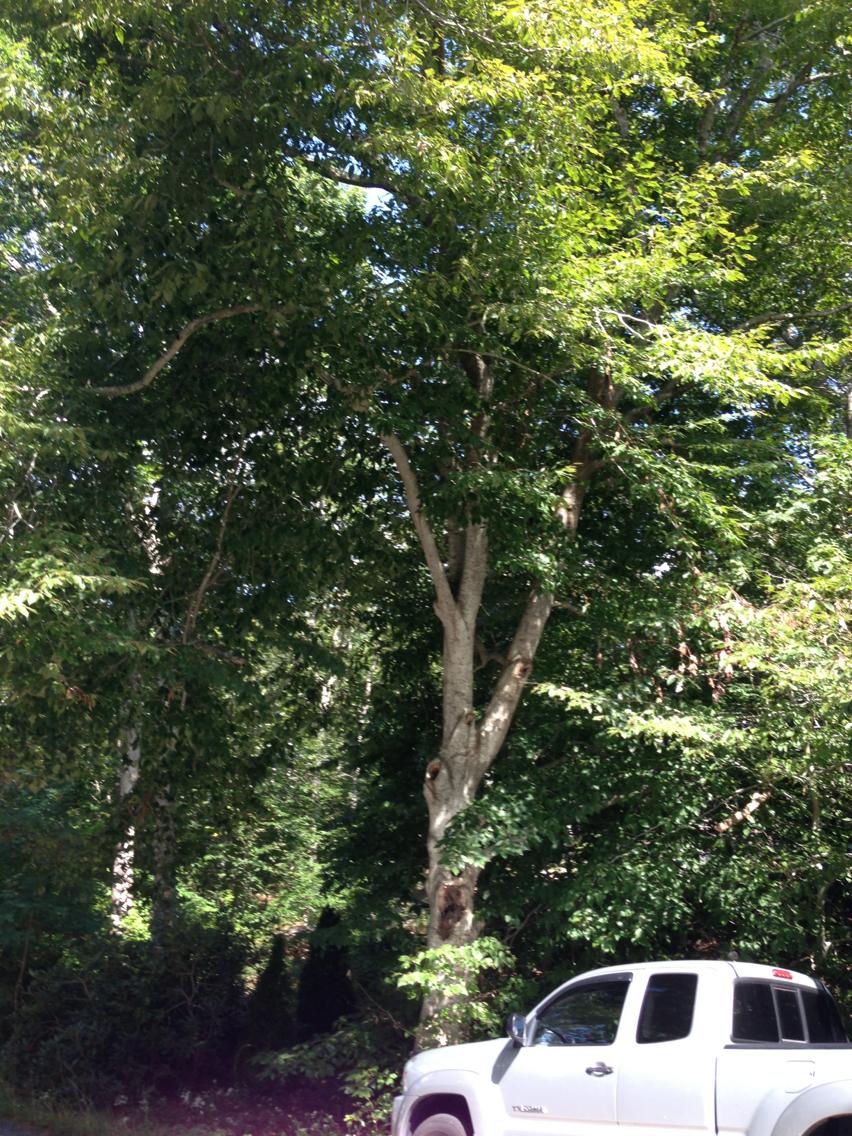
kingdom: Plantae
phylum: Tracheophyta
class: Magnoliopsida
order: Fagales
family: Fagaceae
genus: Fagus
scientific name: Fagus grandifolia
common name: American beech
